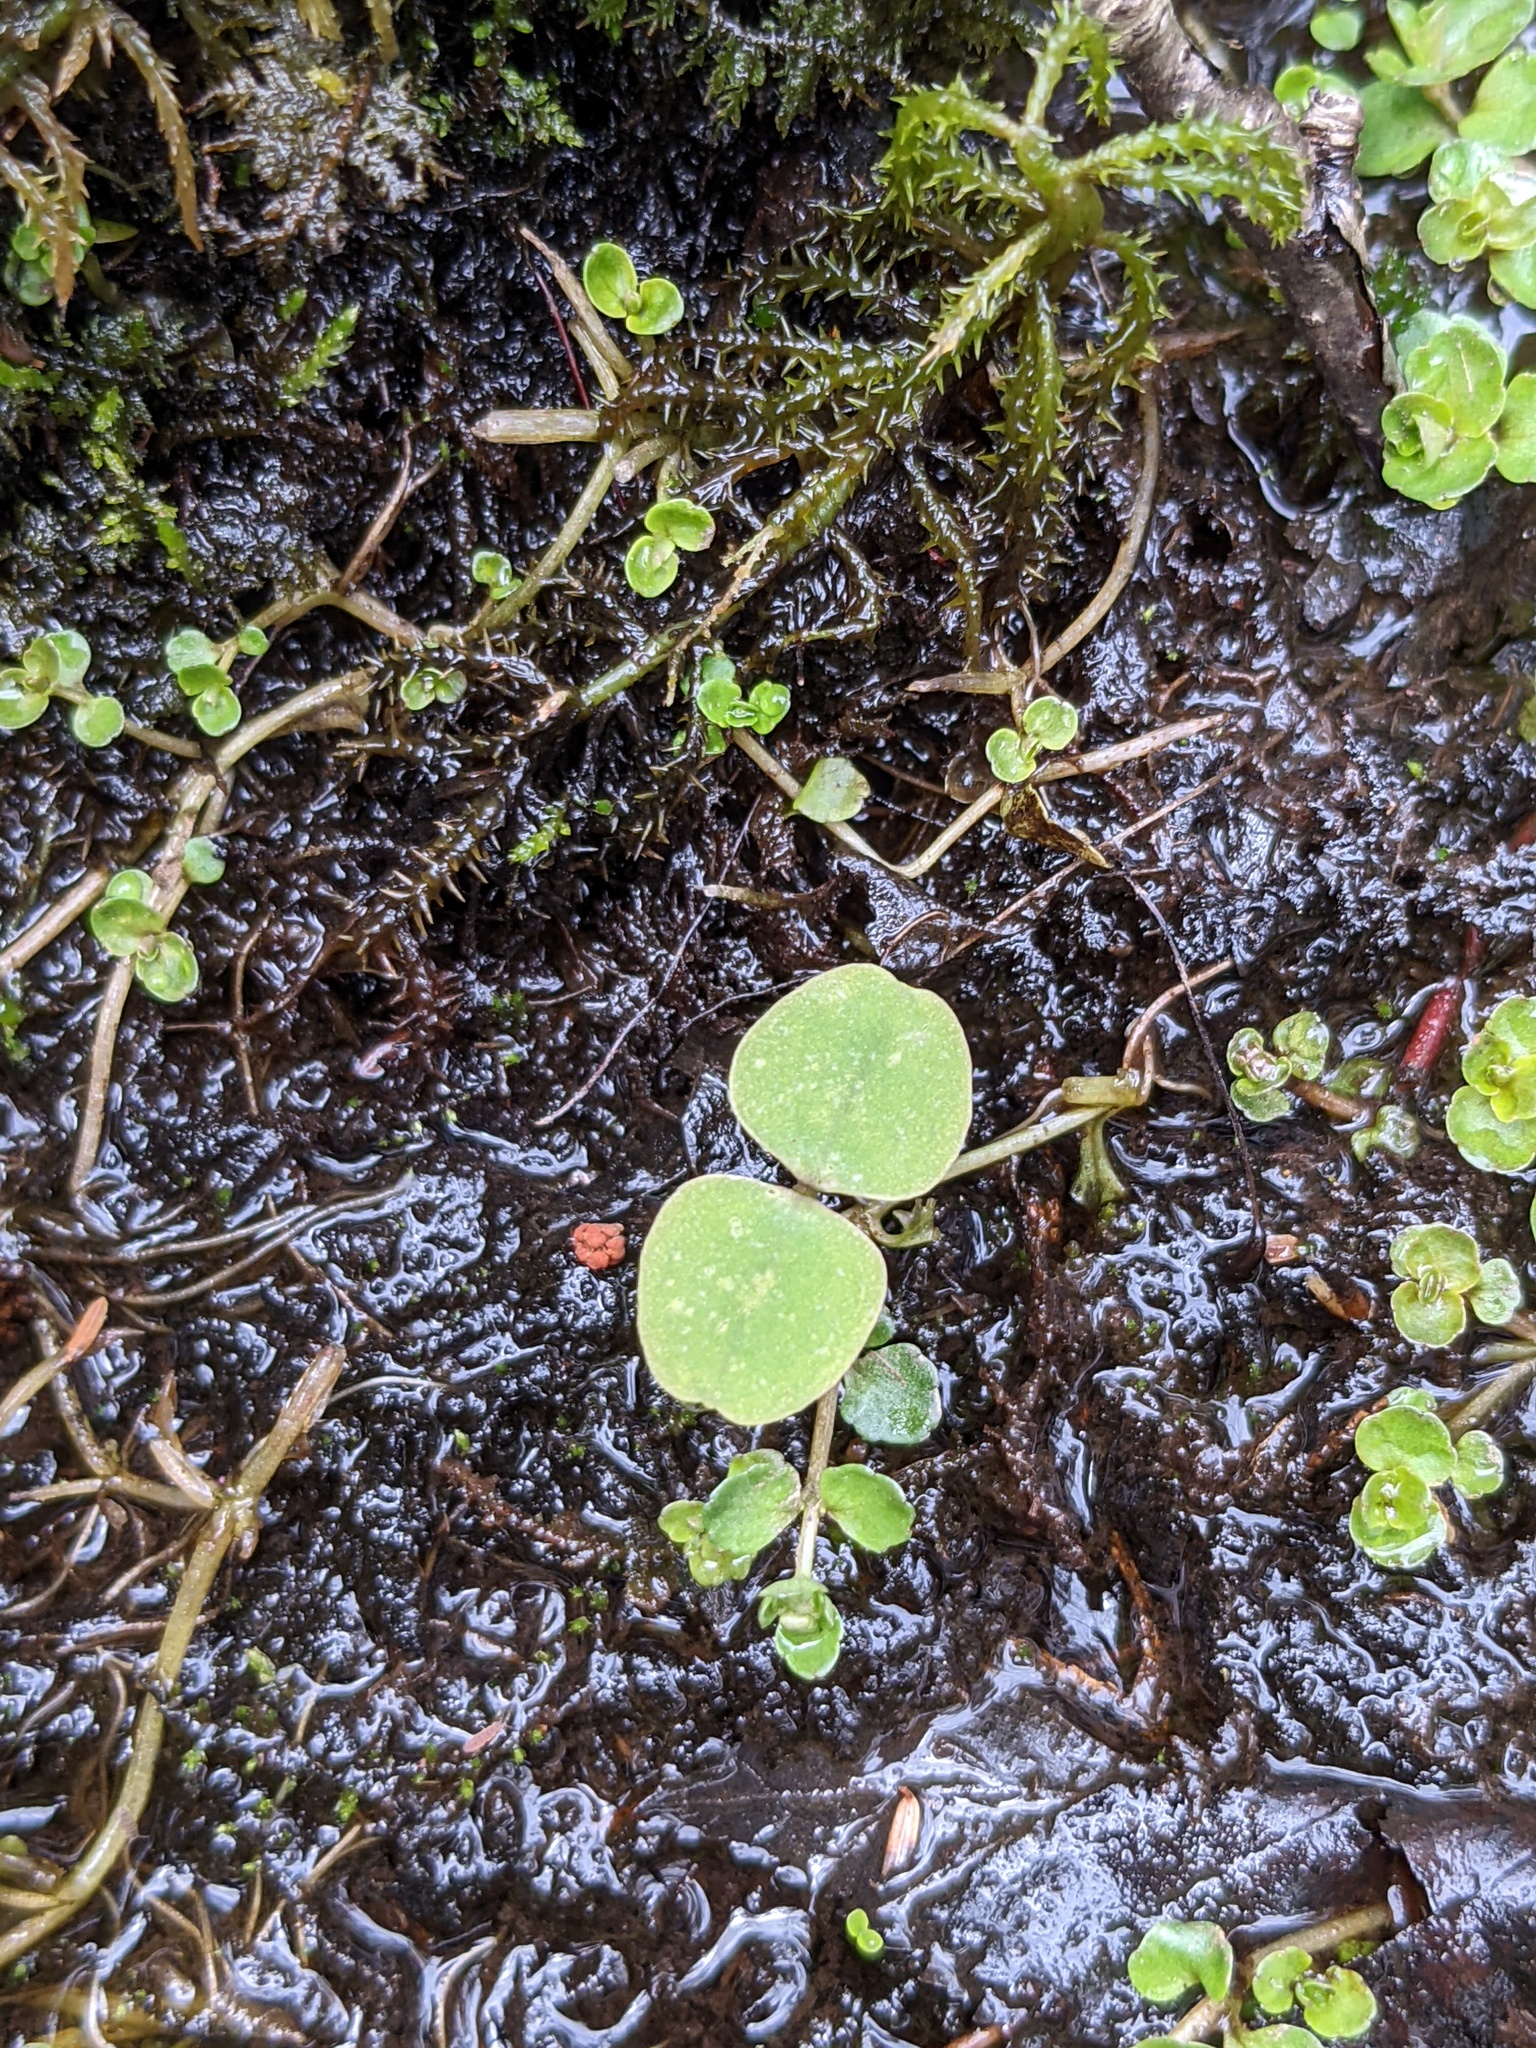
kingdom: Plantae
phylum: Tracheophyta
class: Magnoliopsida
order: Ericales
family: Balsaminaceae
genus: Impatiens
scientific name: Impatiens
